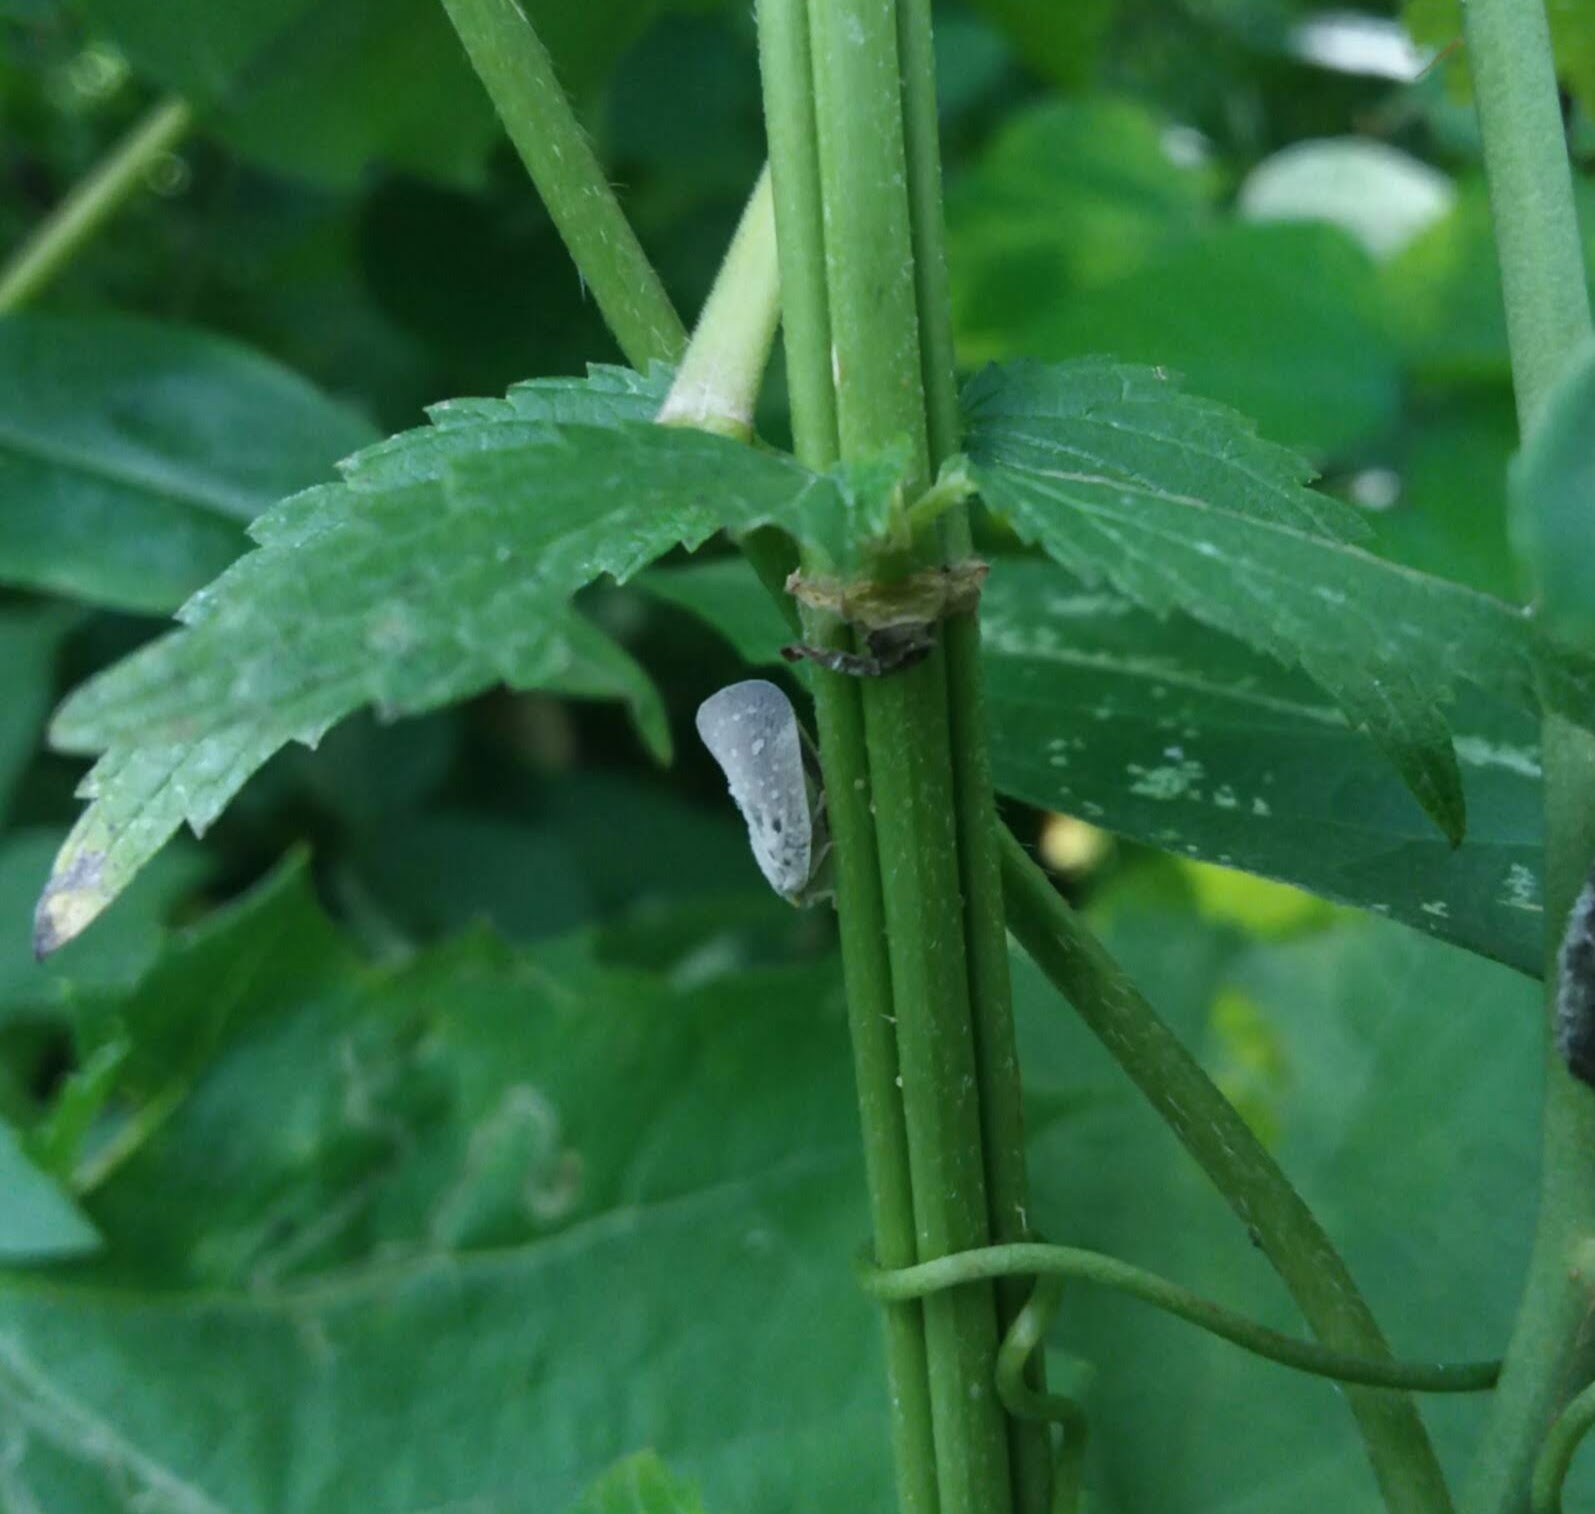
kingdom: Animalia
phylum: Arthropoda
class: Insecta
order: Hemiptera
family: Flatidae
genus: Metcalfa
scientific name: Metcalfa pruinosa
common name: Citrus flatid planthopper
